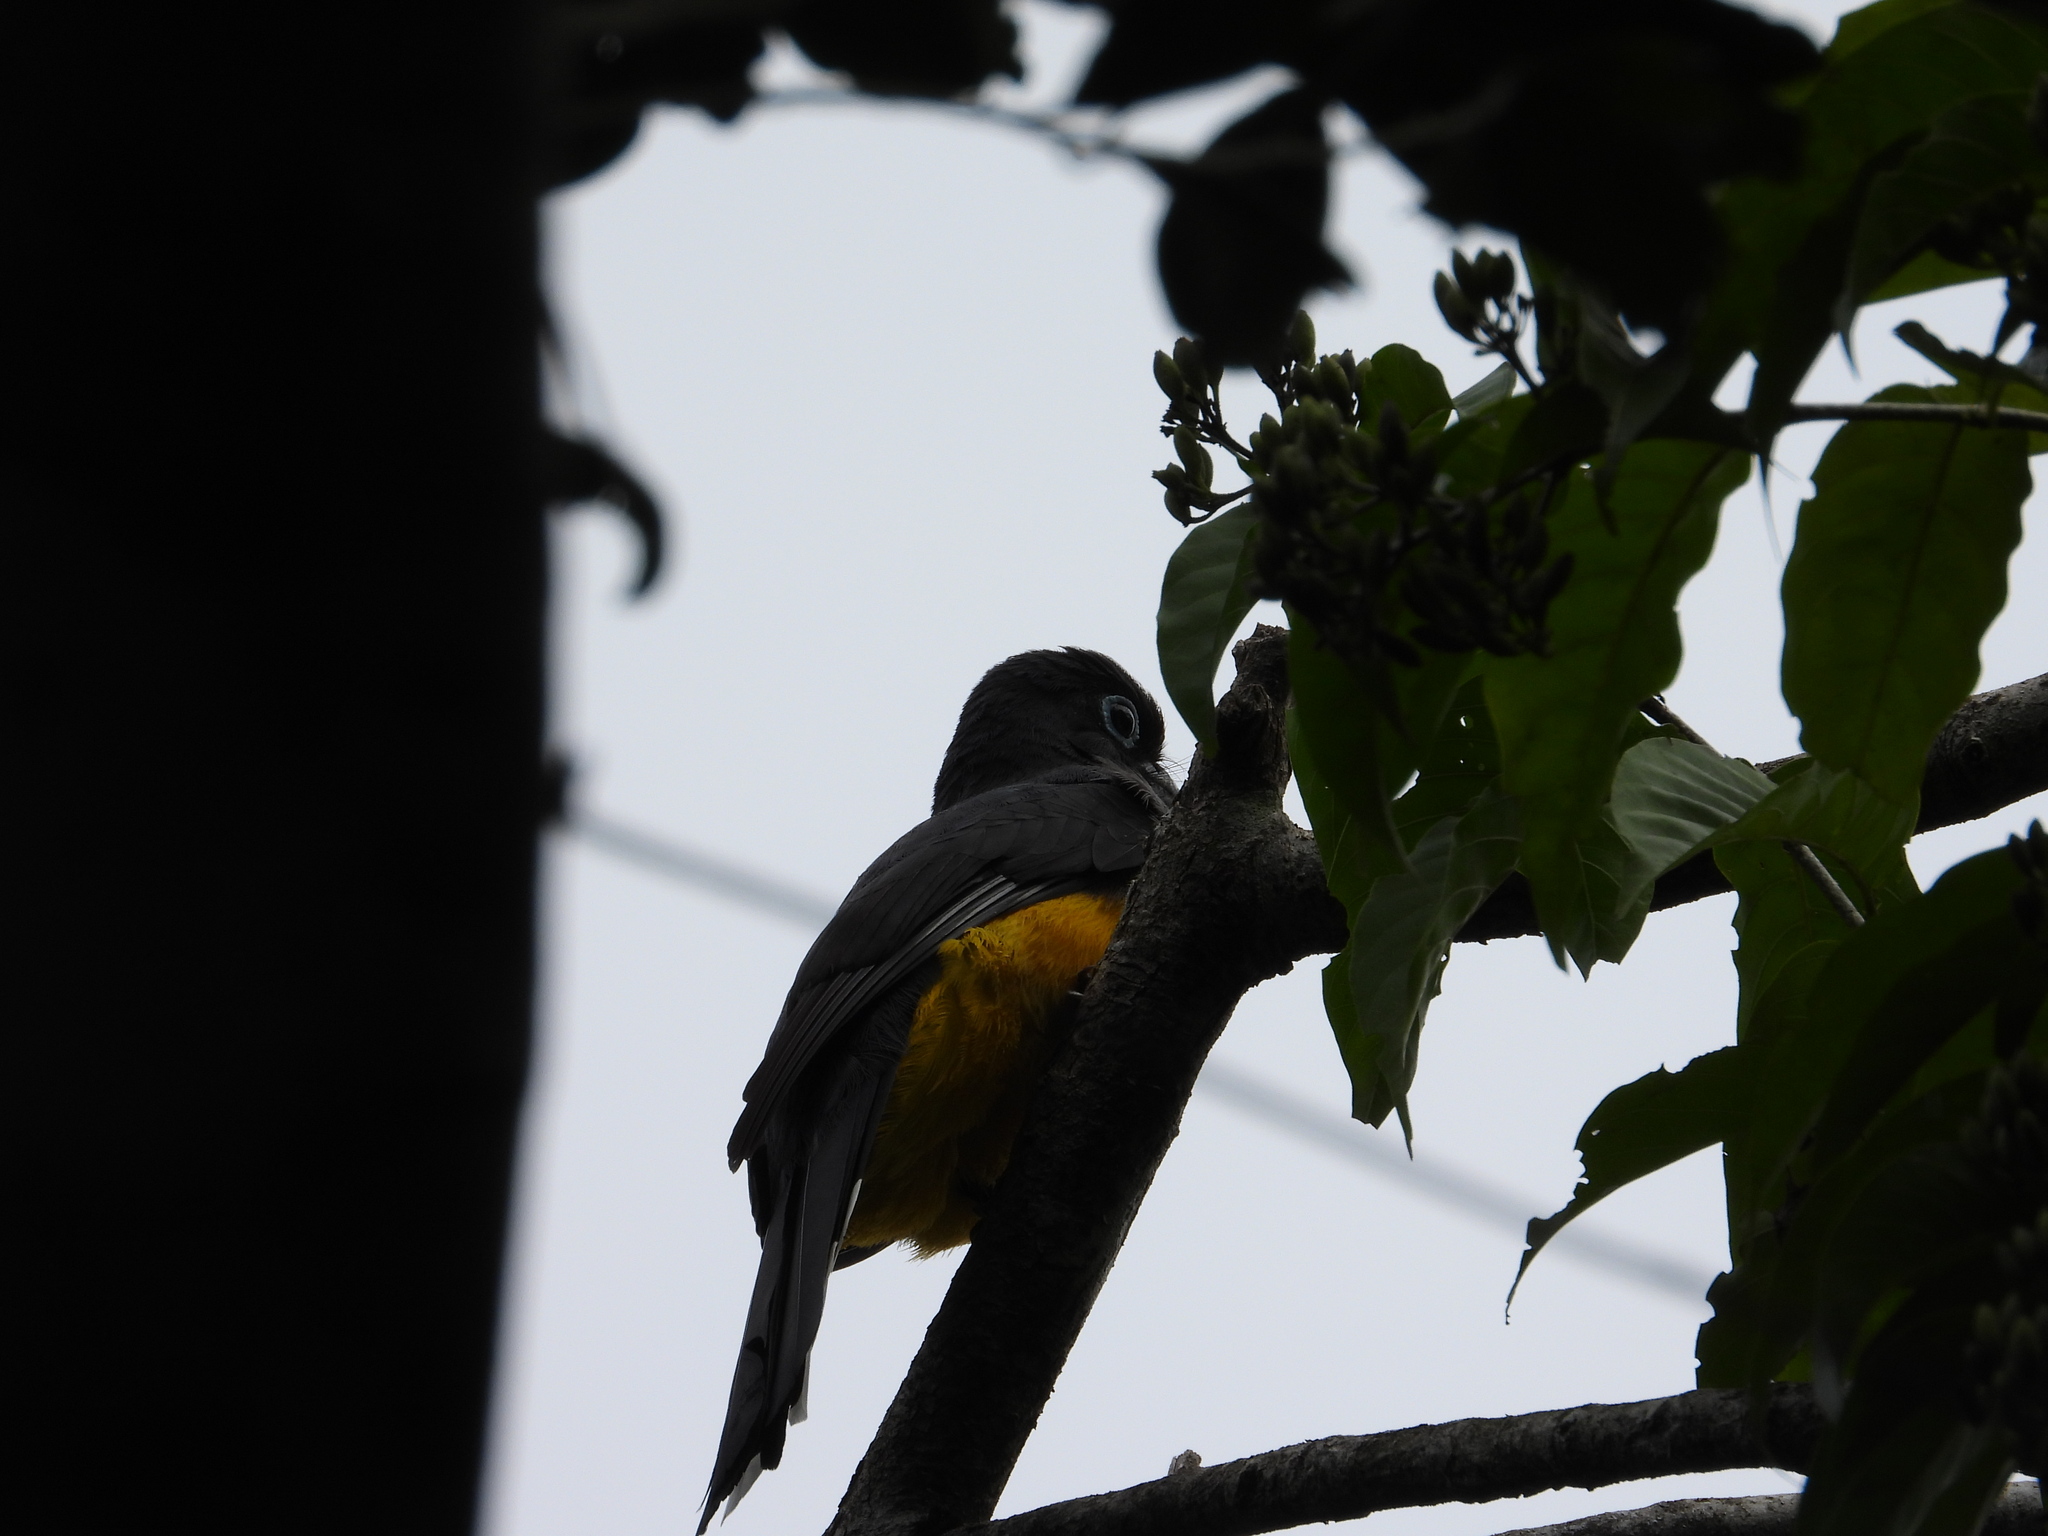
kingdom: Animalia
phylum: Chordata
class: Aves
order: Trogoniformes
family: Trogonidae
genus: Trogon
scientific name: Trogon melanocephalus
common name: Black-headed trogon
